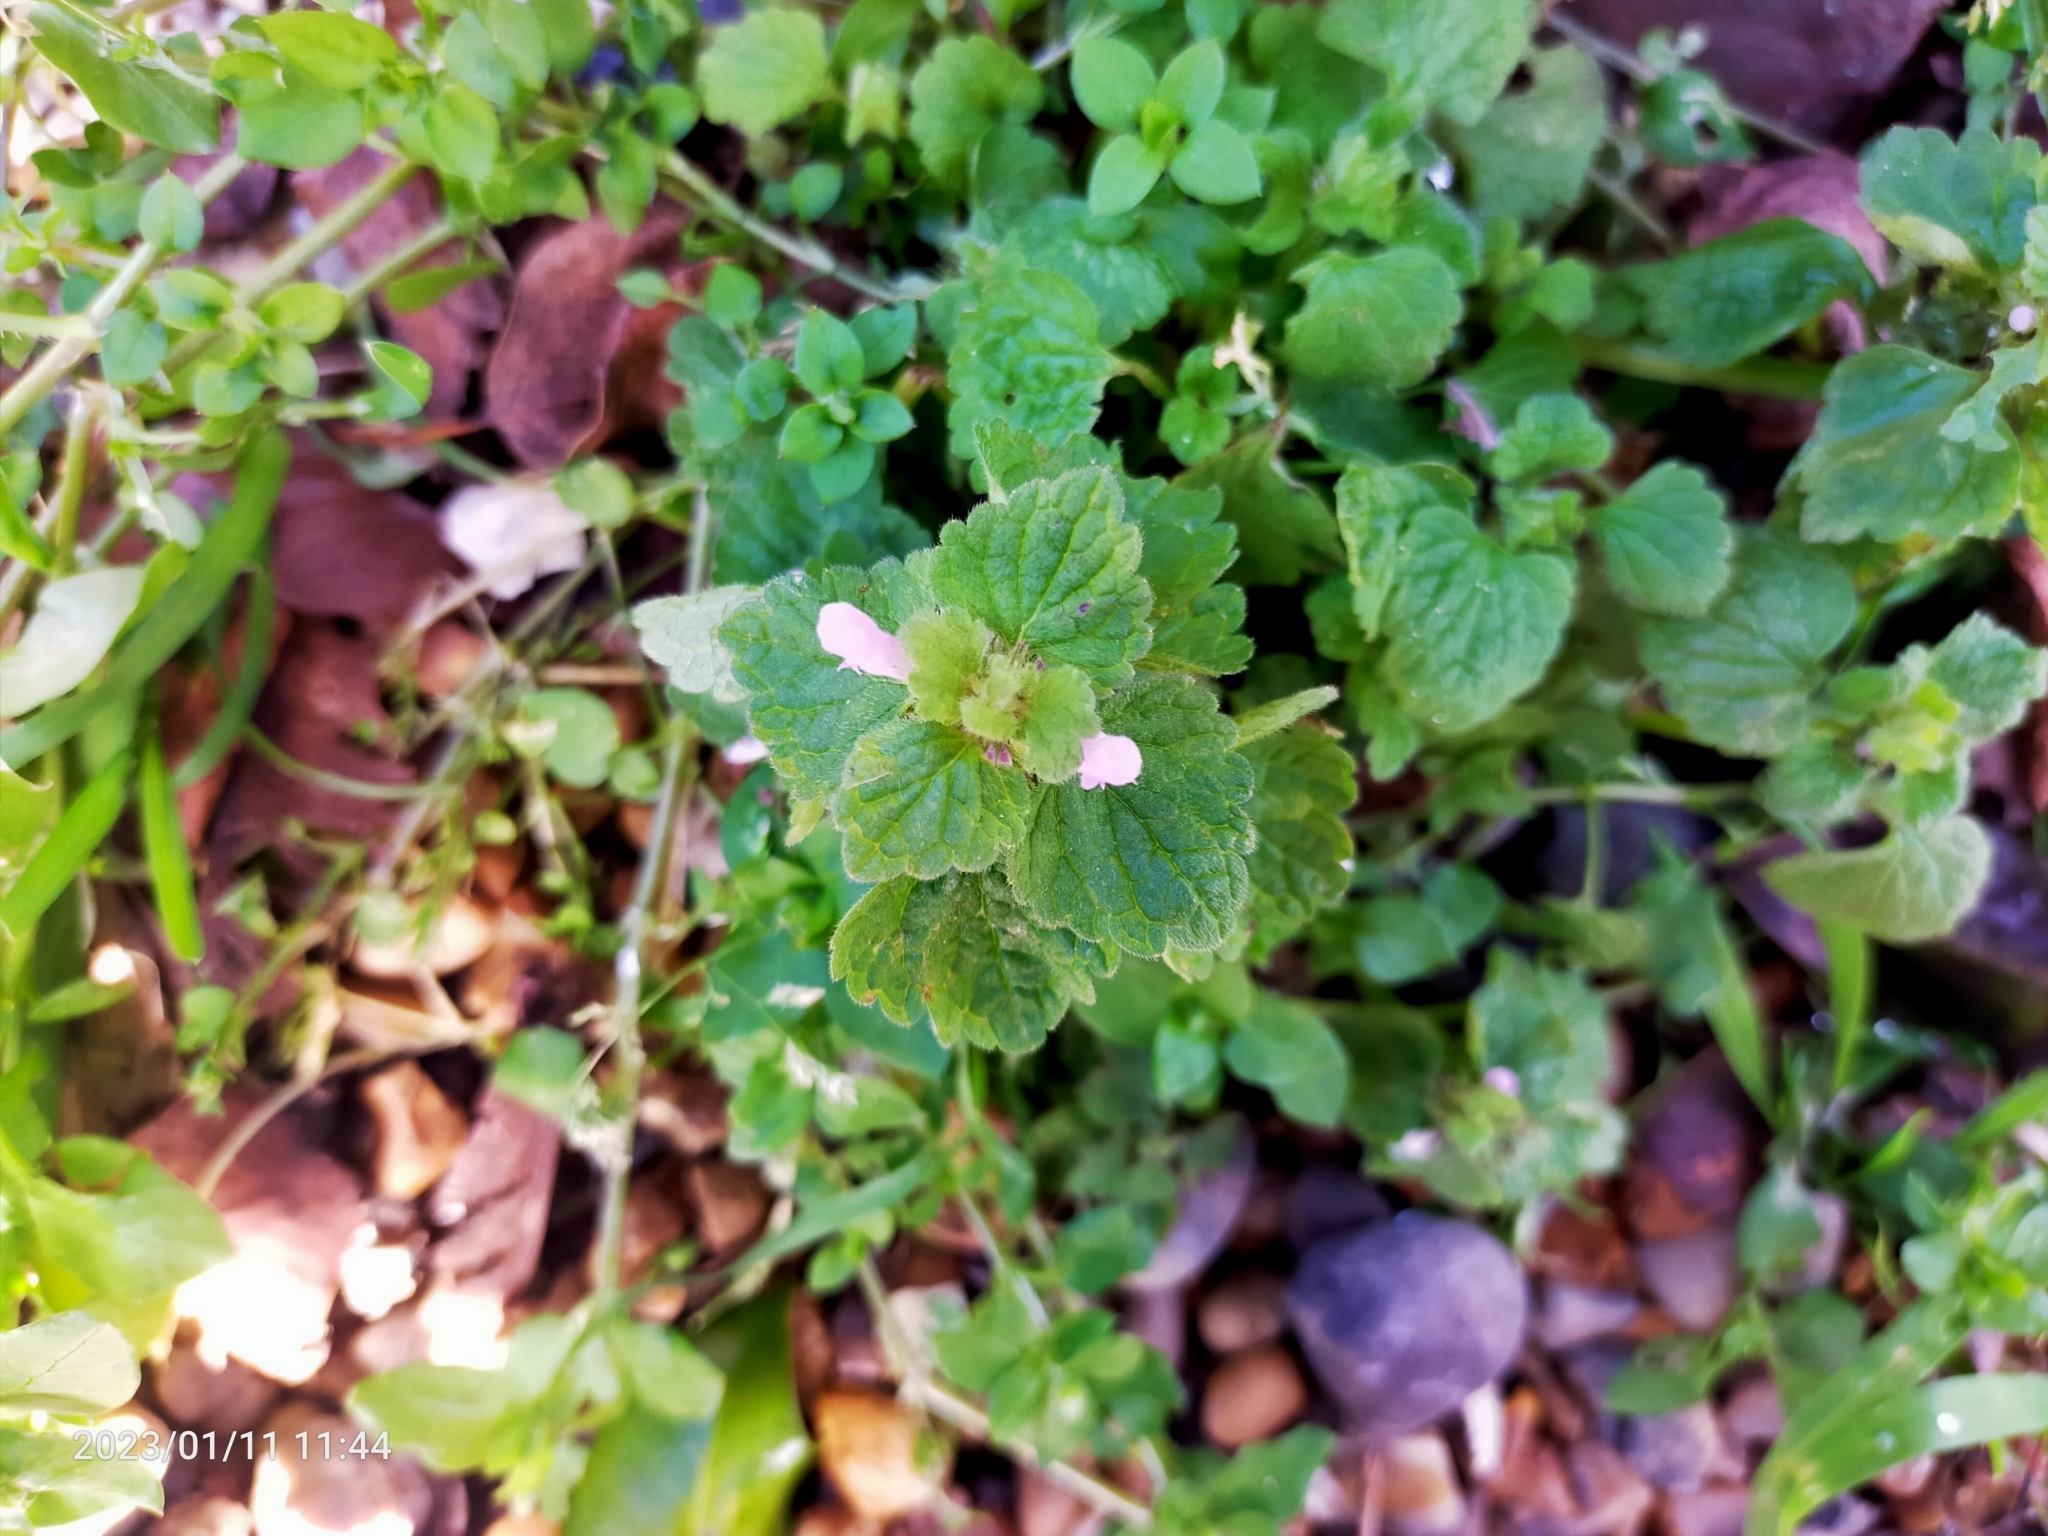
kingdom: Plantae
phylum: Tracheophyta
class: Magnoliopsida
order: Lamiales
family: Lamiaceae
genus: Lamium
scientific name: Lamium purpureum
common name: Red dead-nettle
